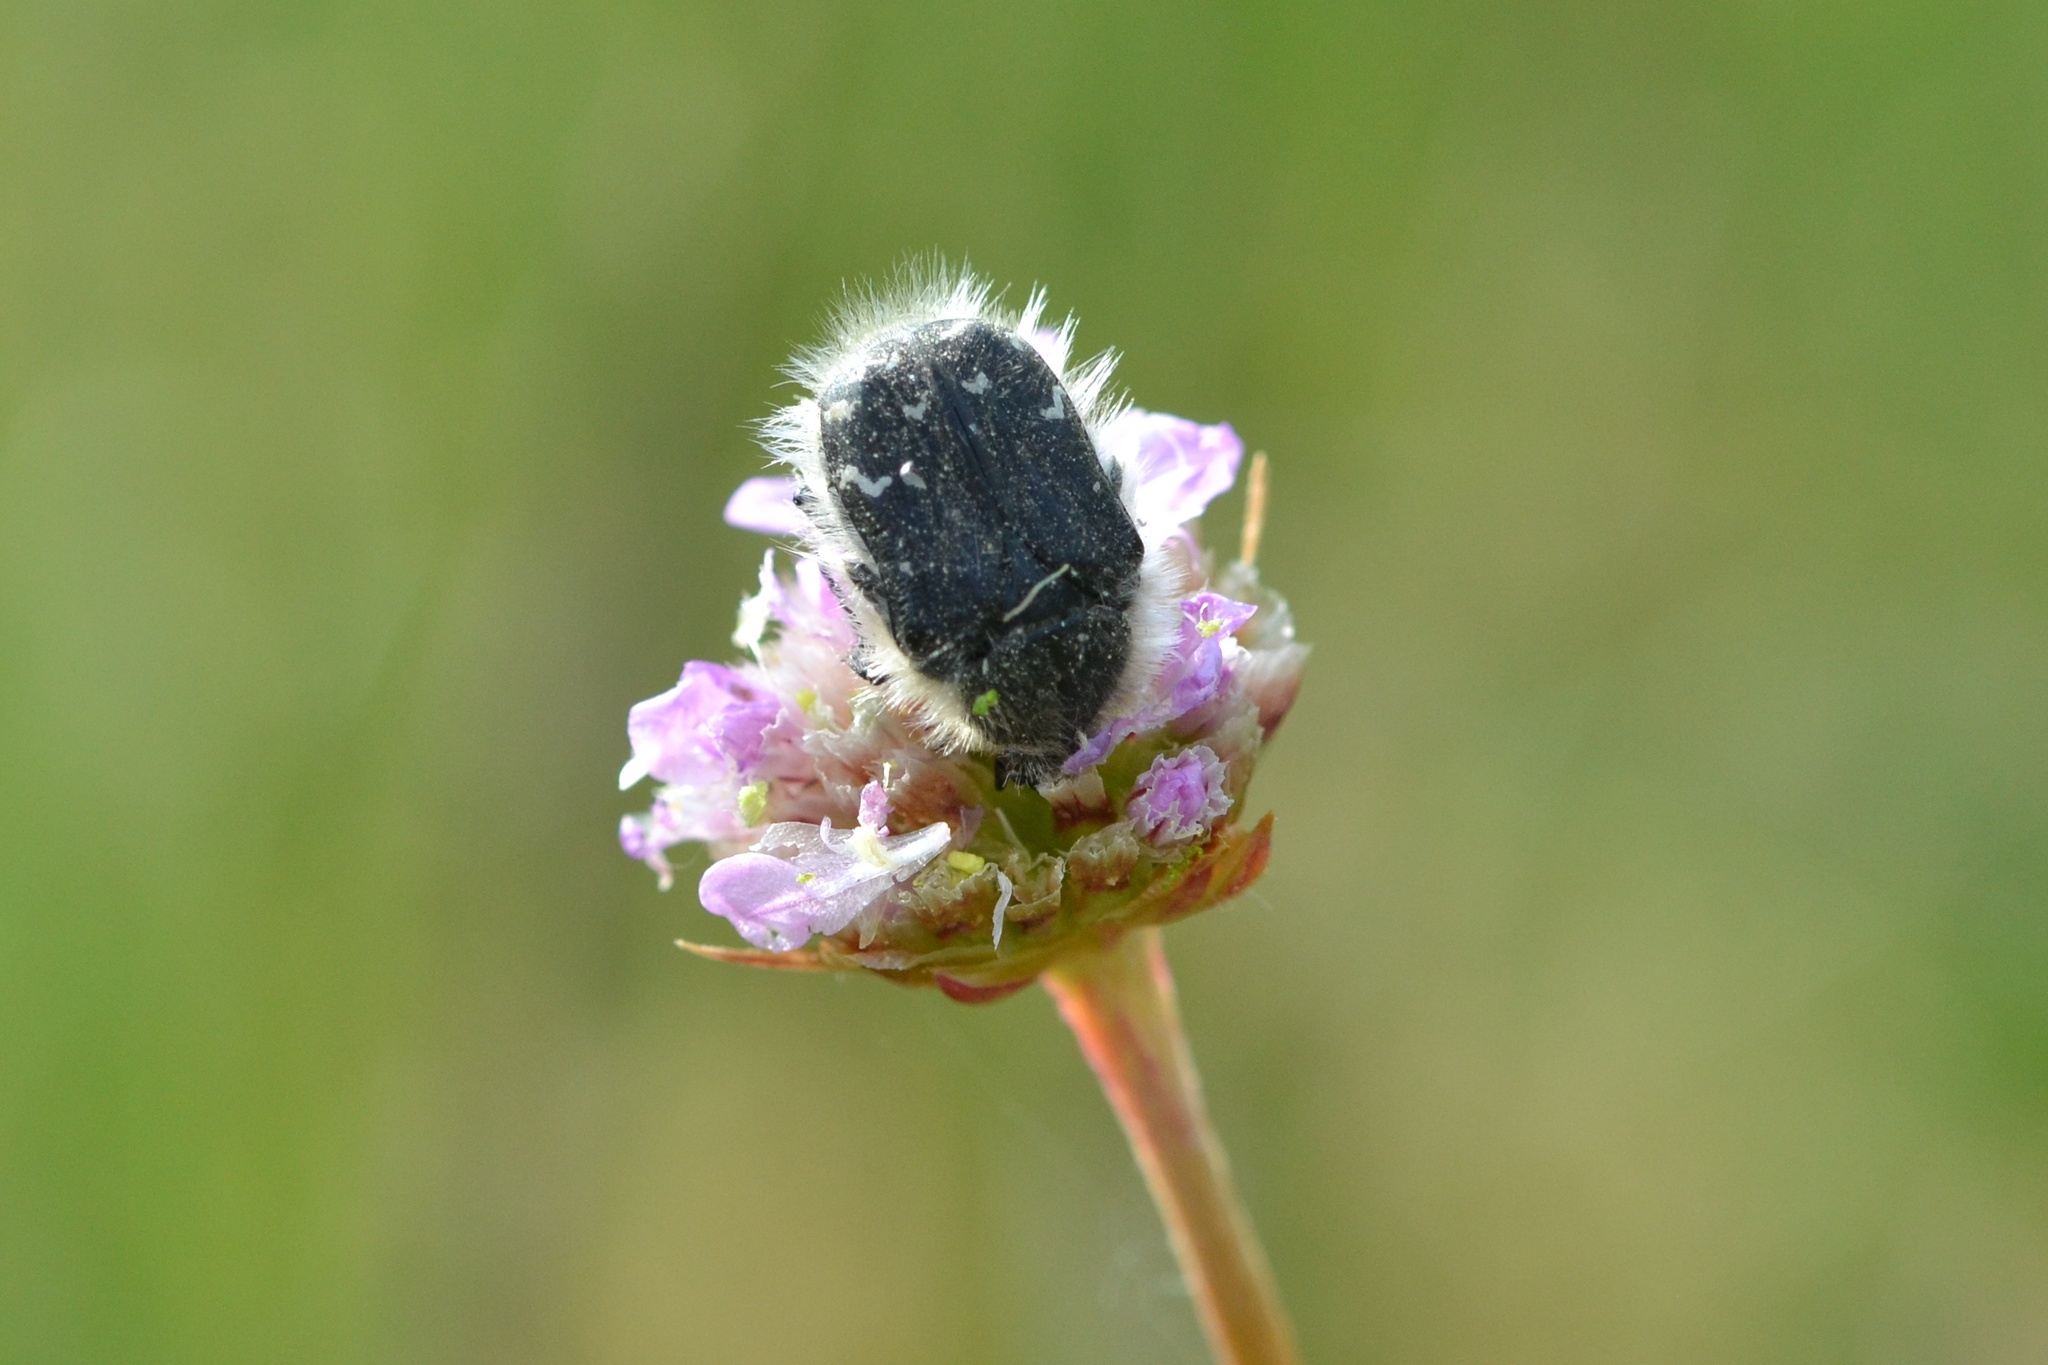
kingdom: Animalia
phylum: Arthropoda
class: Insecta
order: Coleoptera
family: Scarabaeidae
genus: Tropinota
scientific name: Tropinota hirta
